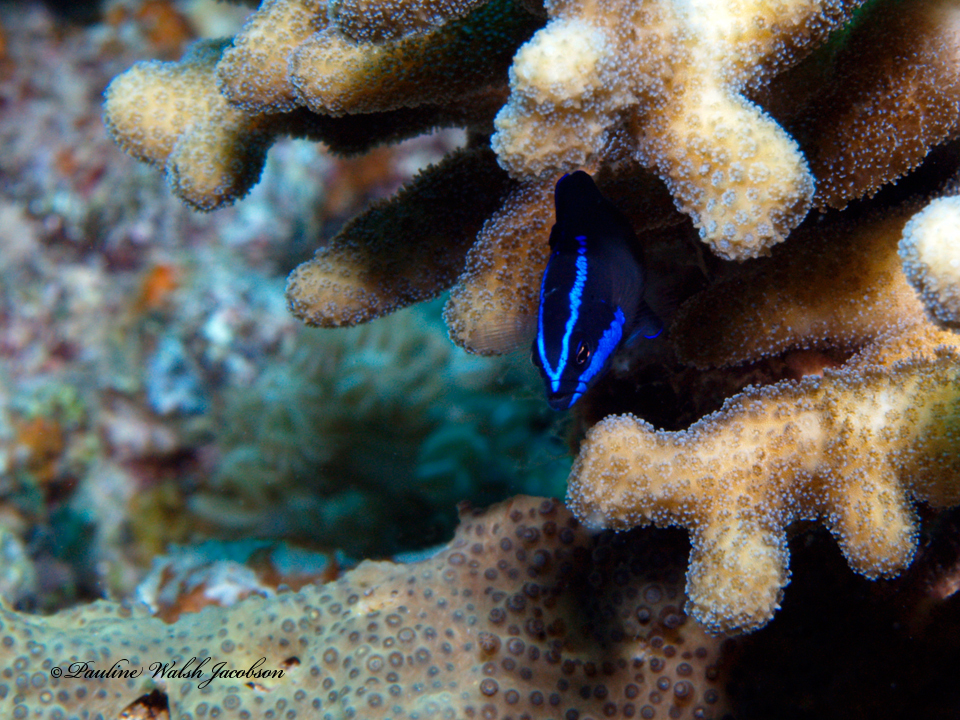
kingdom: Animalia
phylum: Chordata
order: Perciformes
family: Pseudochromidae
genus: Pseudochromis
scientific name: Pseudochromis springeri
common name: Blue-striped dottyback
